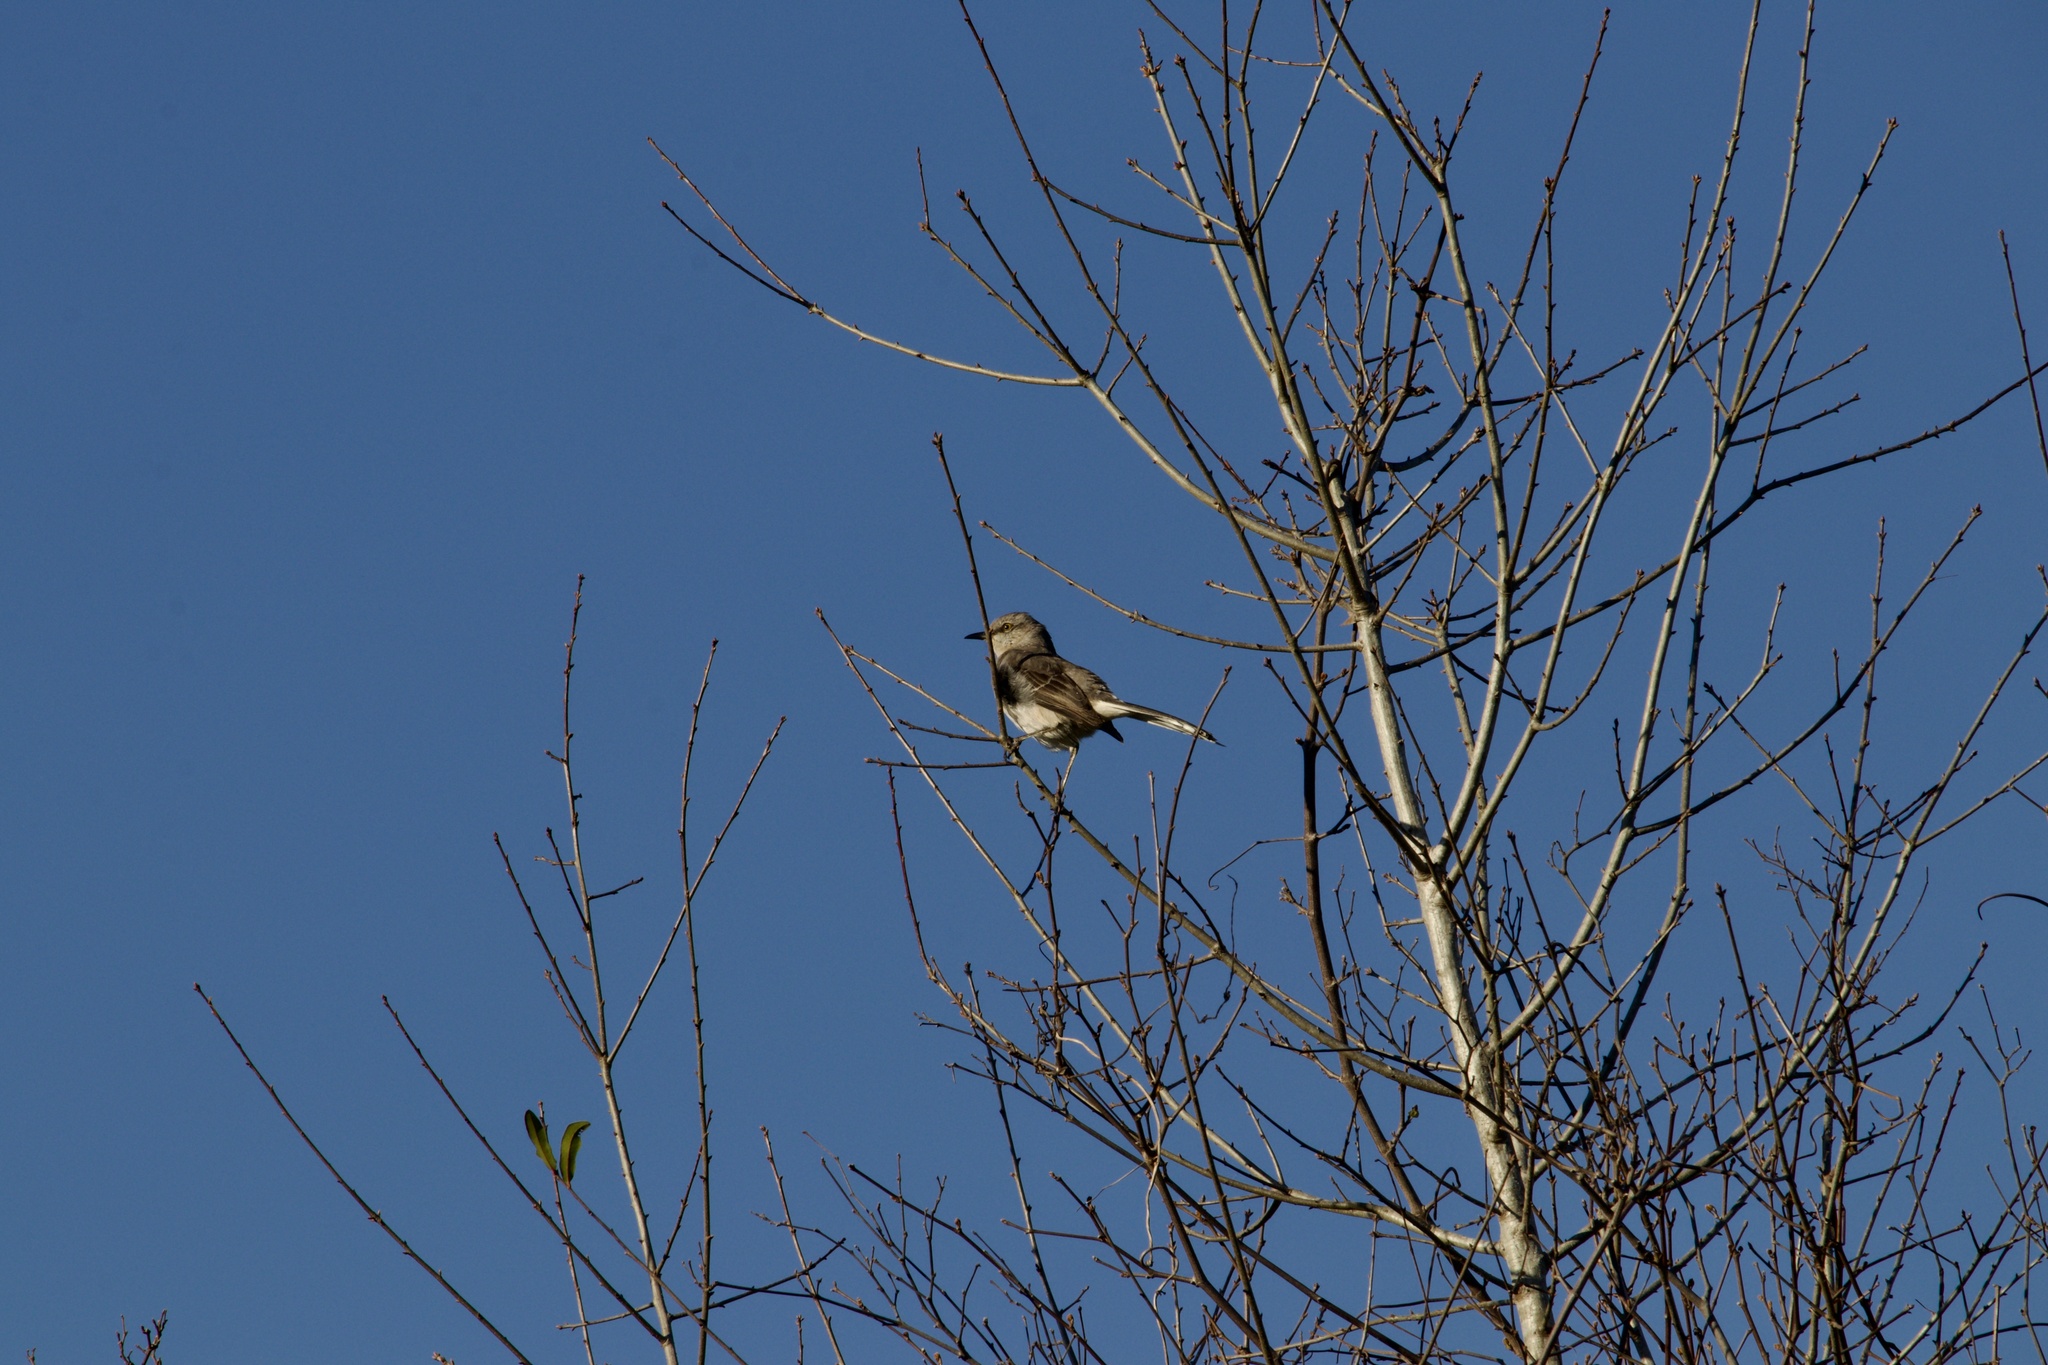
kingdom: Animalia
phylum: Chordata
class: Aves
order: Passeriformes
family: Mimidae
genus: Mimus
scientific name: Mimus polyglottos
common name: Northern mockingbird
